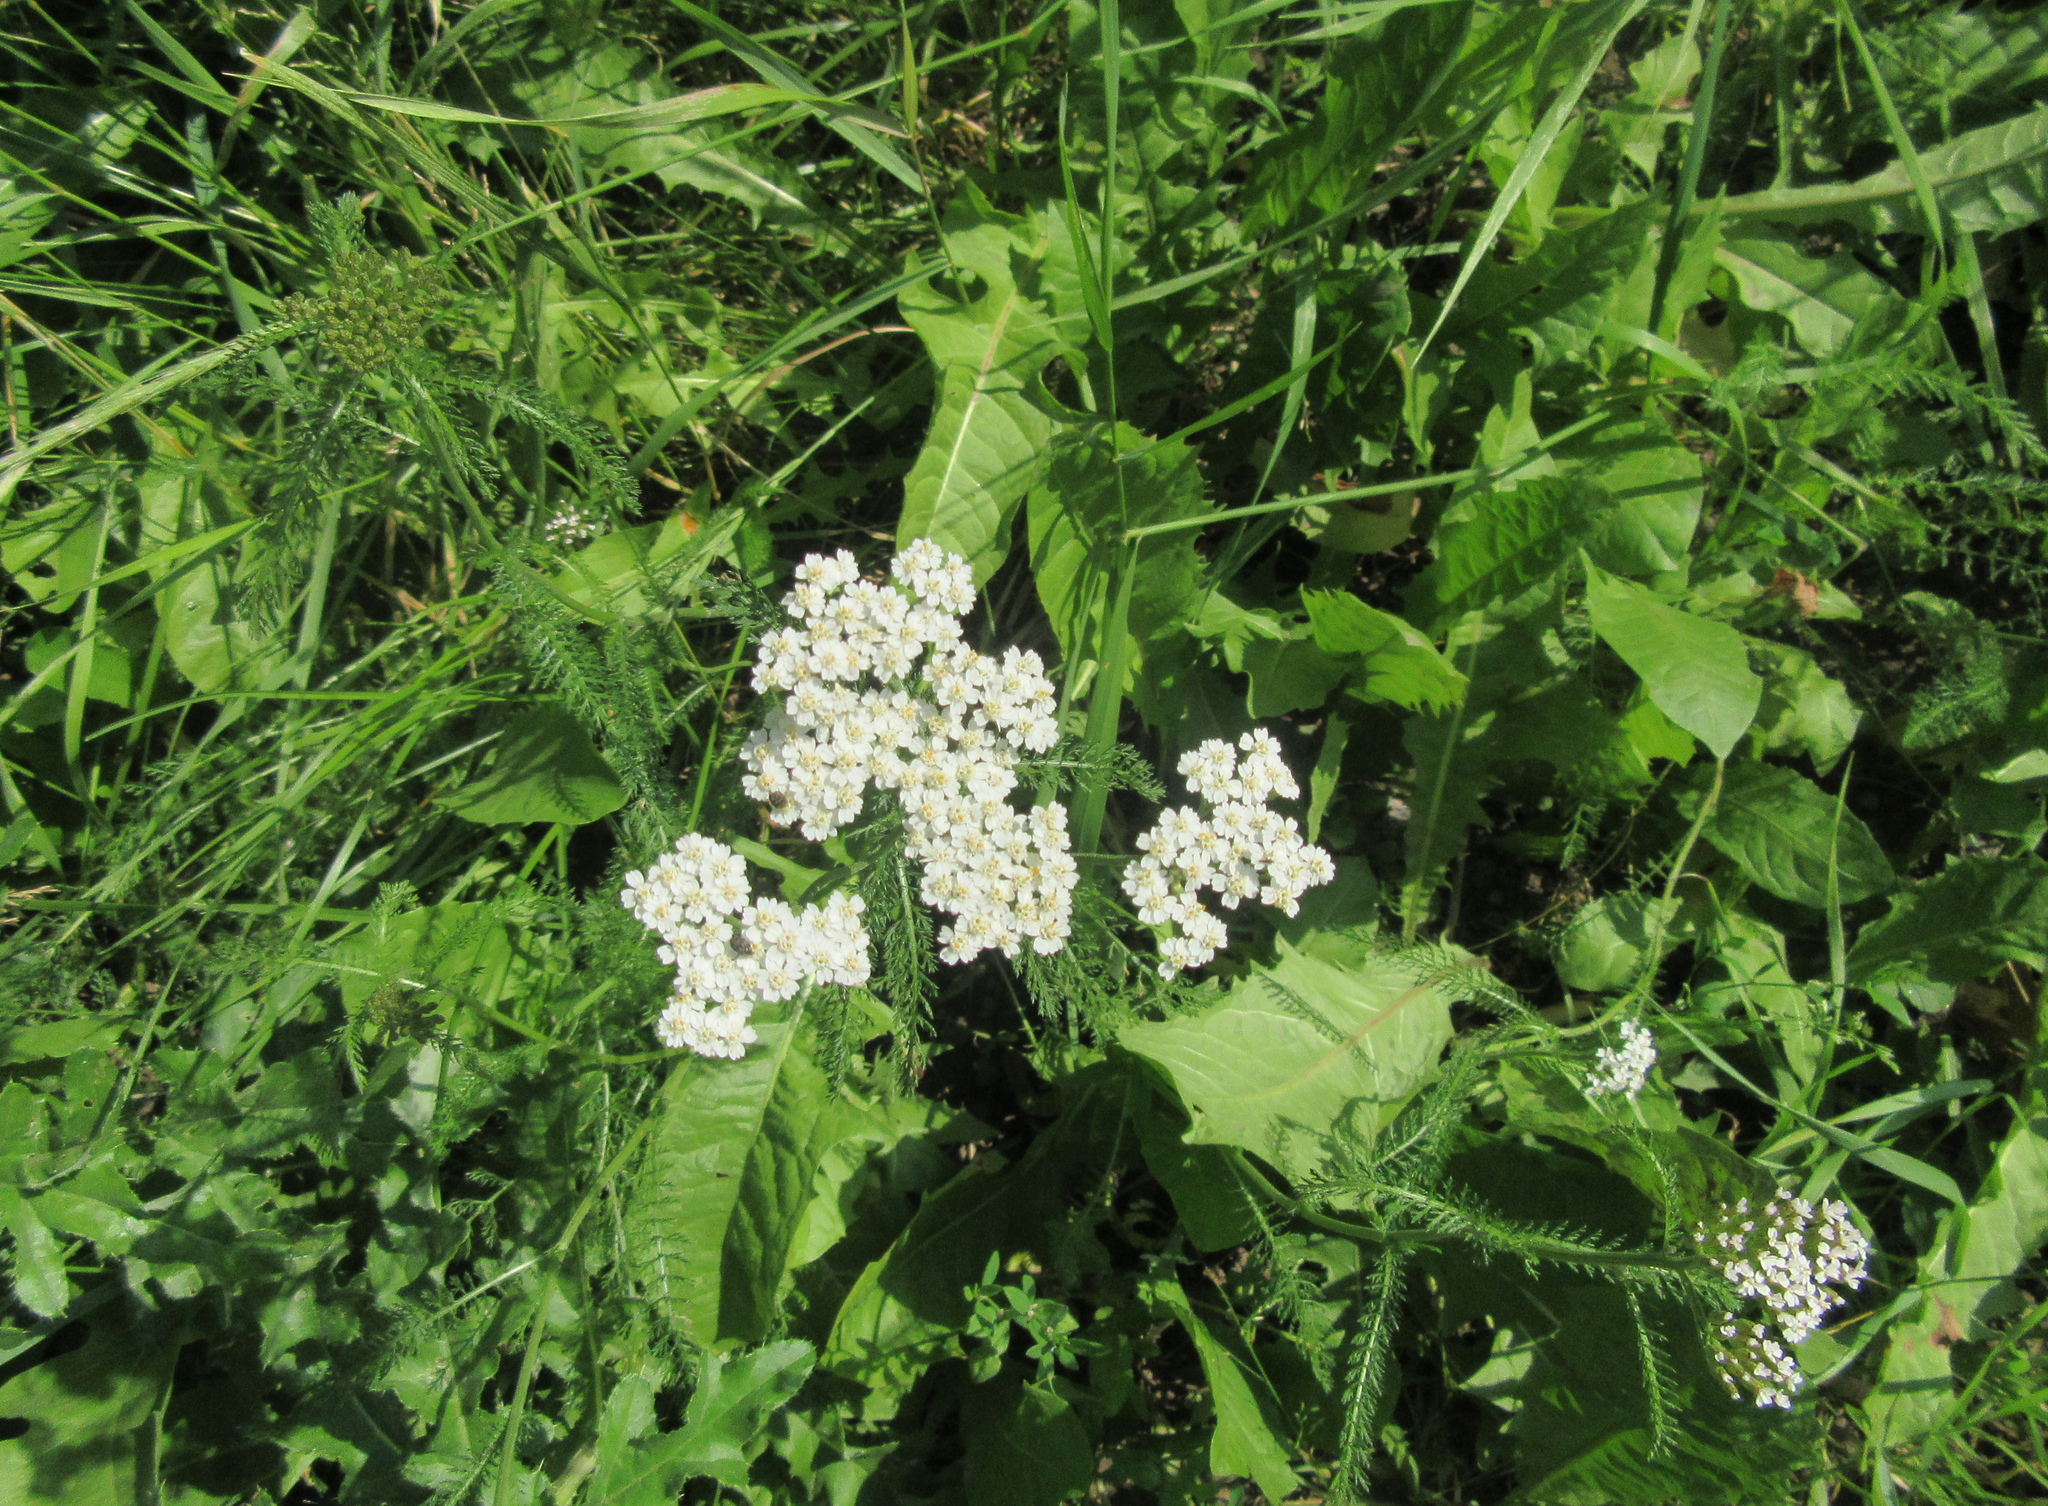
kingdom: Plantae
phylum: Tracheophyta
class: Magnoliopsida
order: Asterales
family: Asteraceae
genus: Achillea
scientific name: Achillea millefolium
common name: Yarrow
